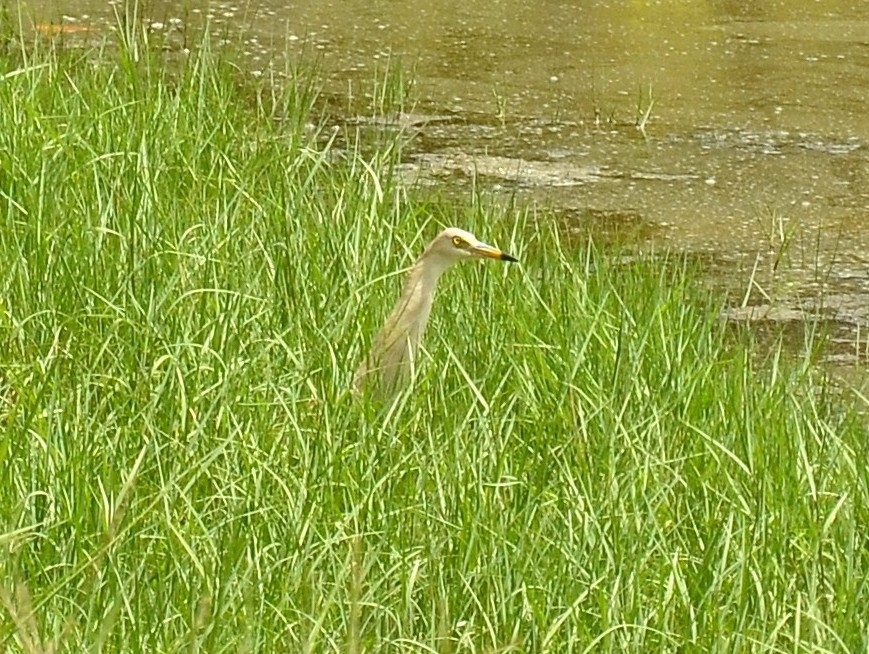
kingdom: Animalia
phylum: Chordata
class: Aves
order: Pelecaniformes
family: Ardeidae
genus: Ardeola
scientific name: Ardeola grayii
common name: Indian pond heron
